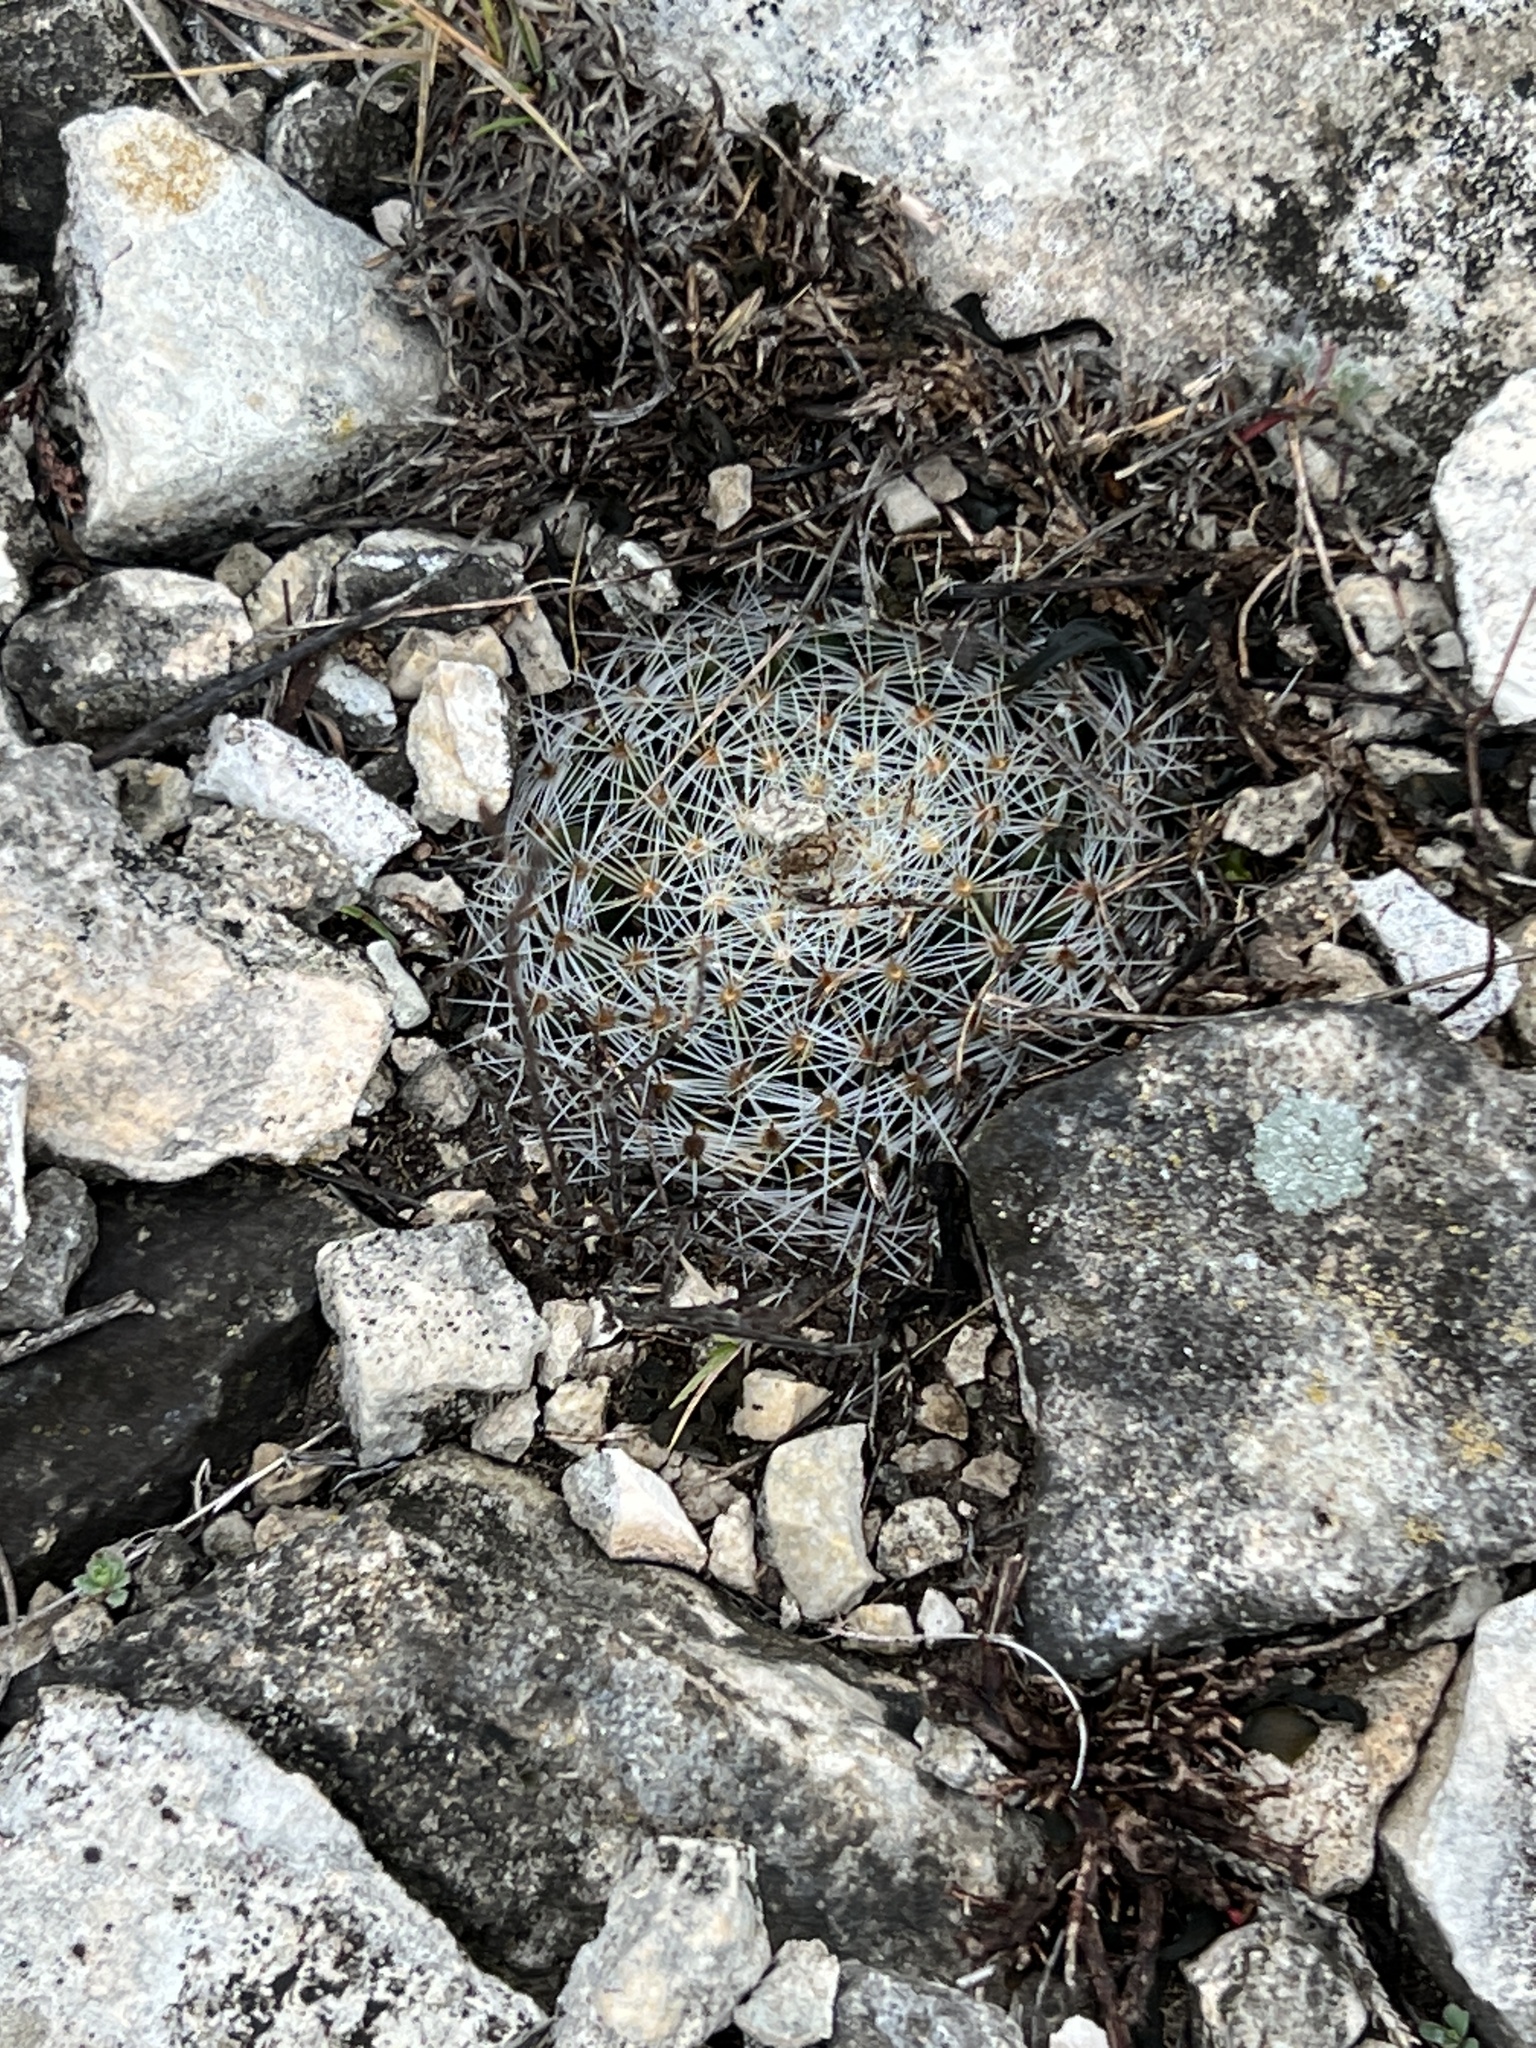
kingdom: Plantae
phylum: Tracheophyta
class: Magnoliopsida
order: Caryophyllales
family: Cactaceae
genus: Mammillaria
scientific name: Mammillaria heyderi
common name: Little nipple cactus
